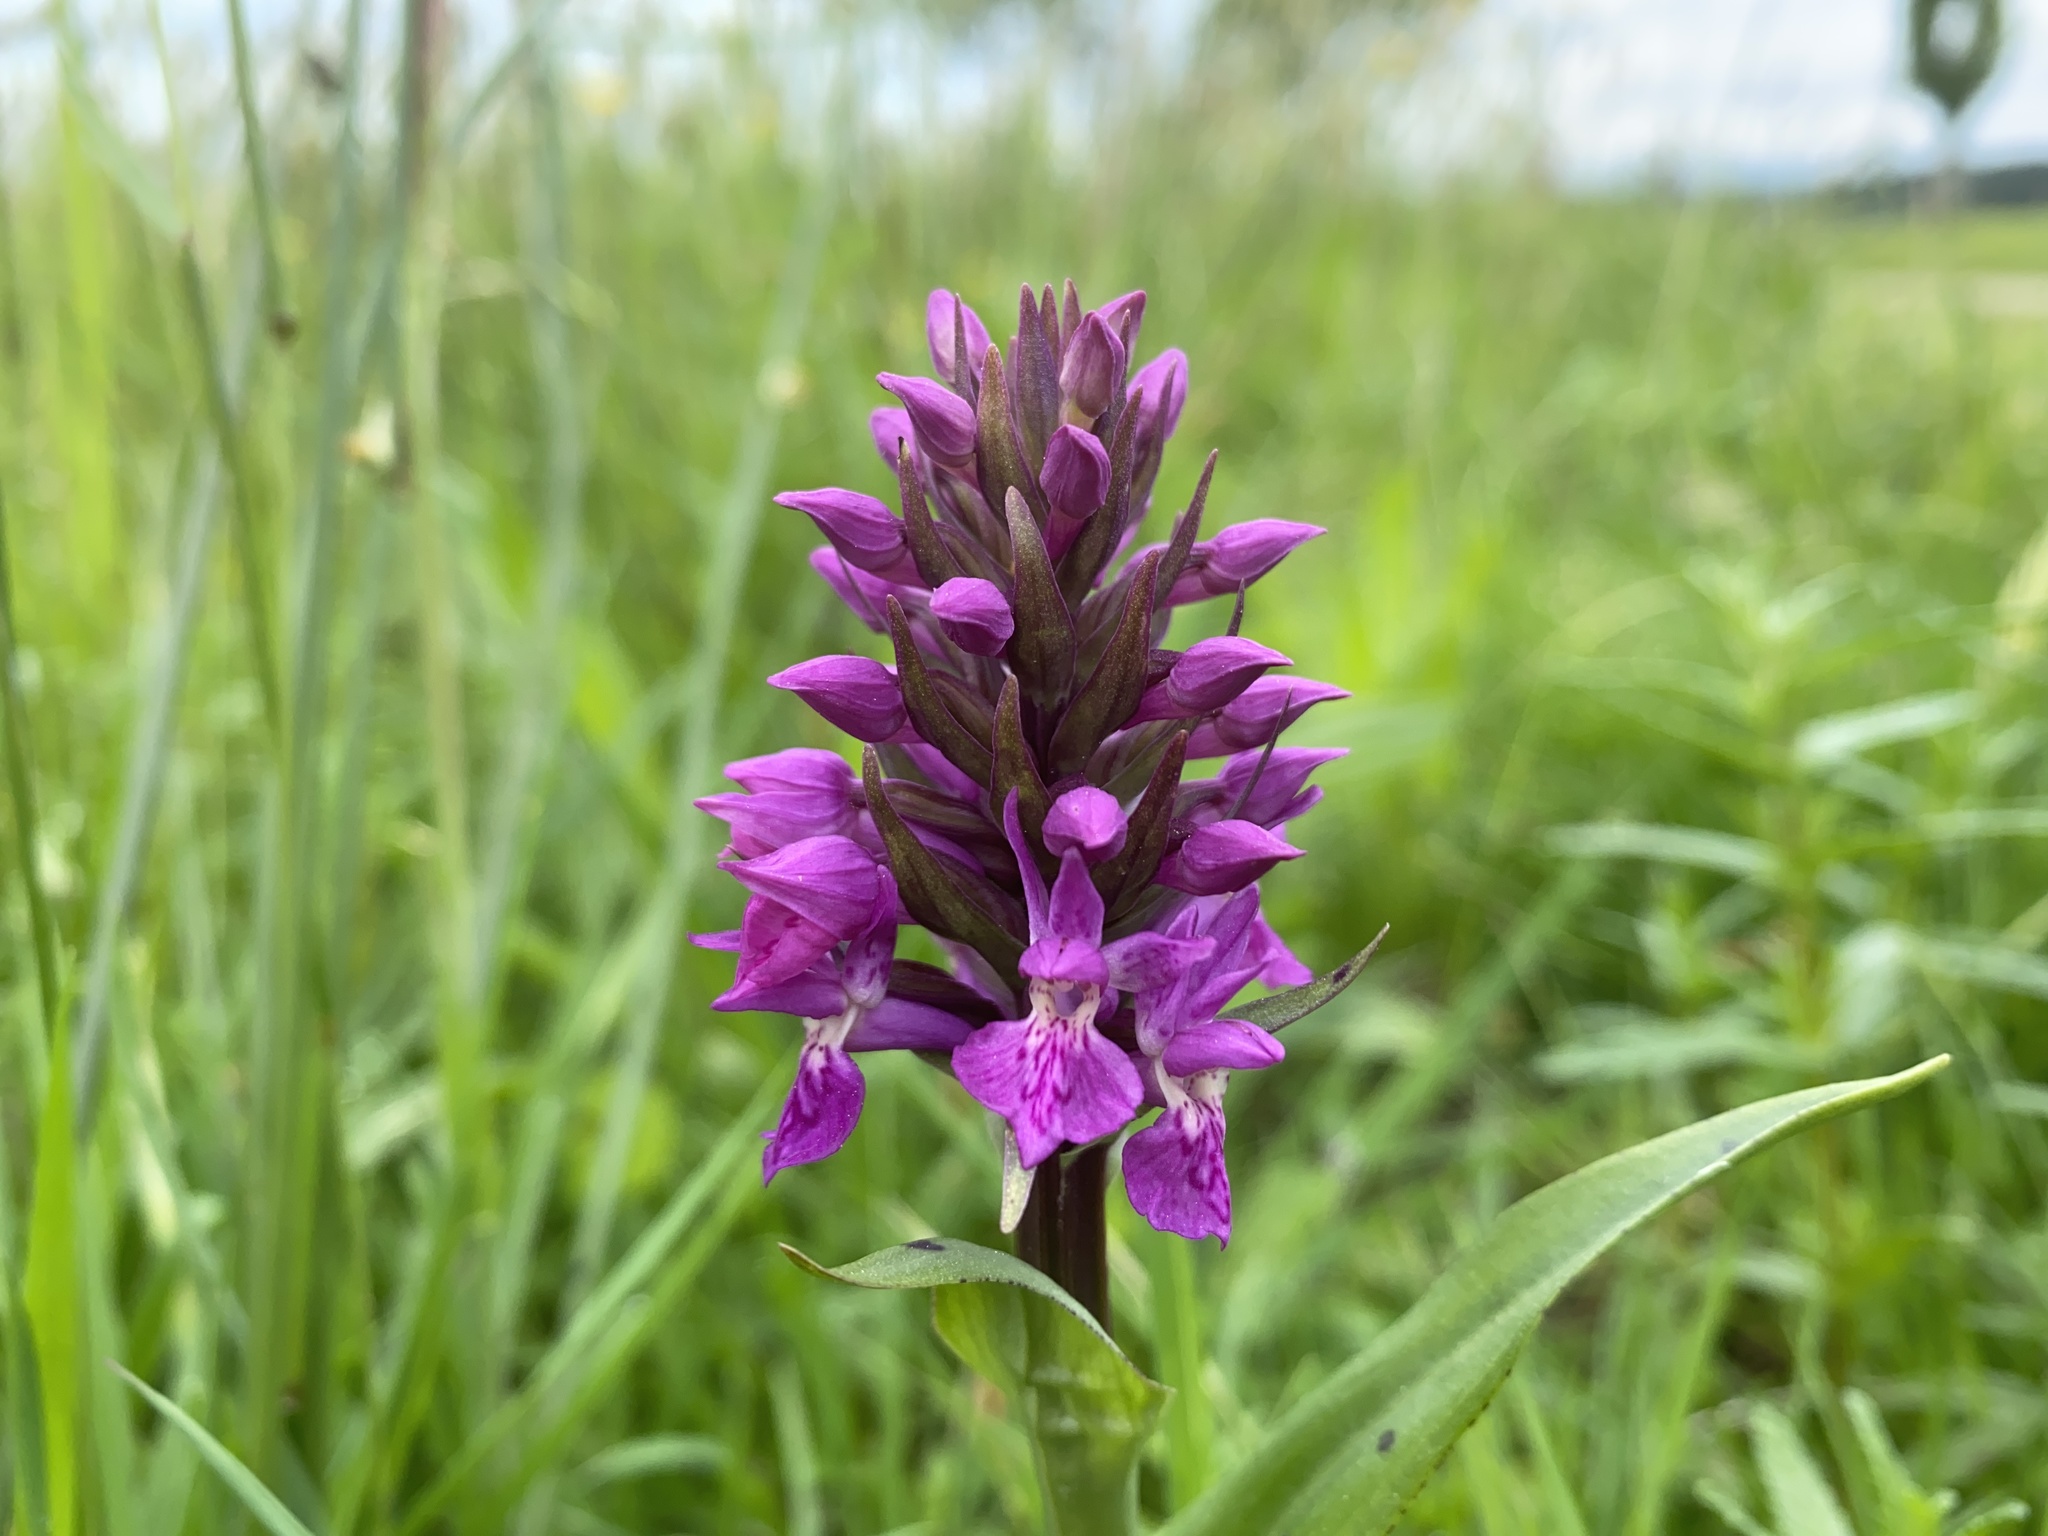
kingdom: Plantae
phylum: Tracheophyta
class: Liliopsida
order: Asparagales
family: Orchidaceae
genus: Dactylorhiza
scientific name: Dactylorhiza majalis
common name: Marsh orchid
